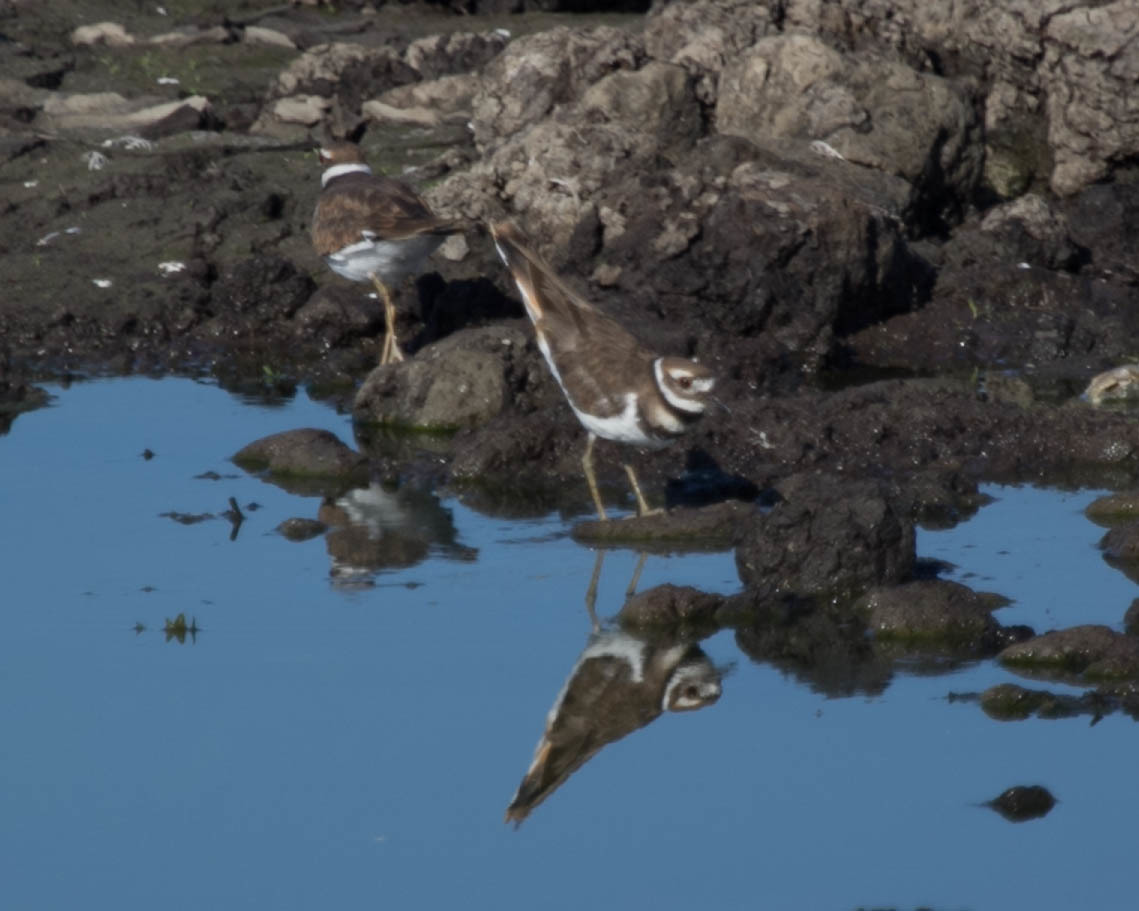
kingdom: Animalia
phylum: Chordata
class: Aves
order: Charadriiformes
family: Charadriidae
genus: Charadrius
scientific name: Charadrius vociferus
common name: Killdeer
